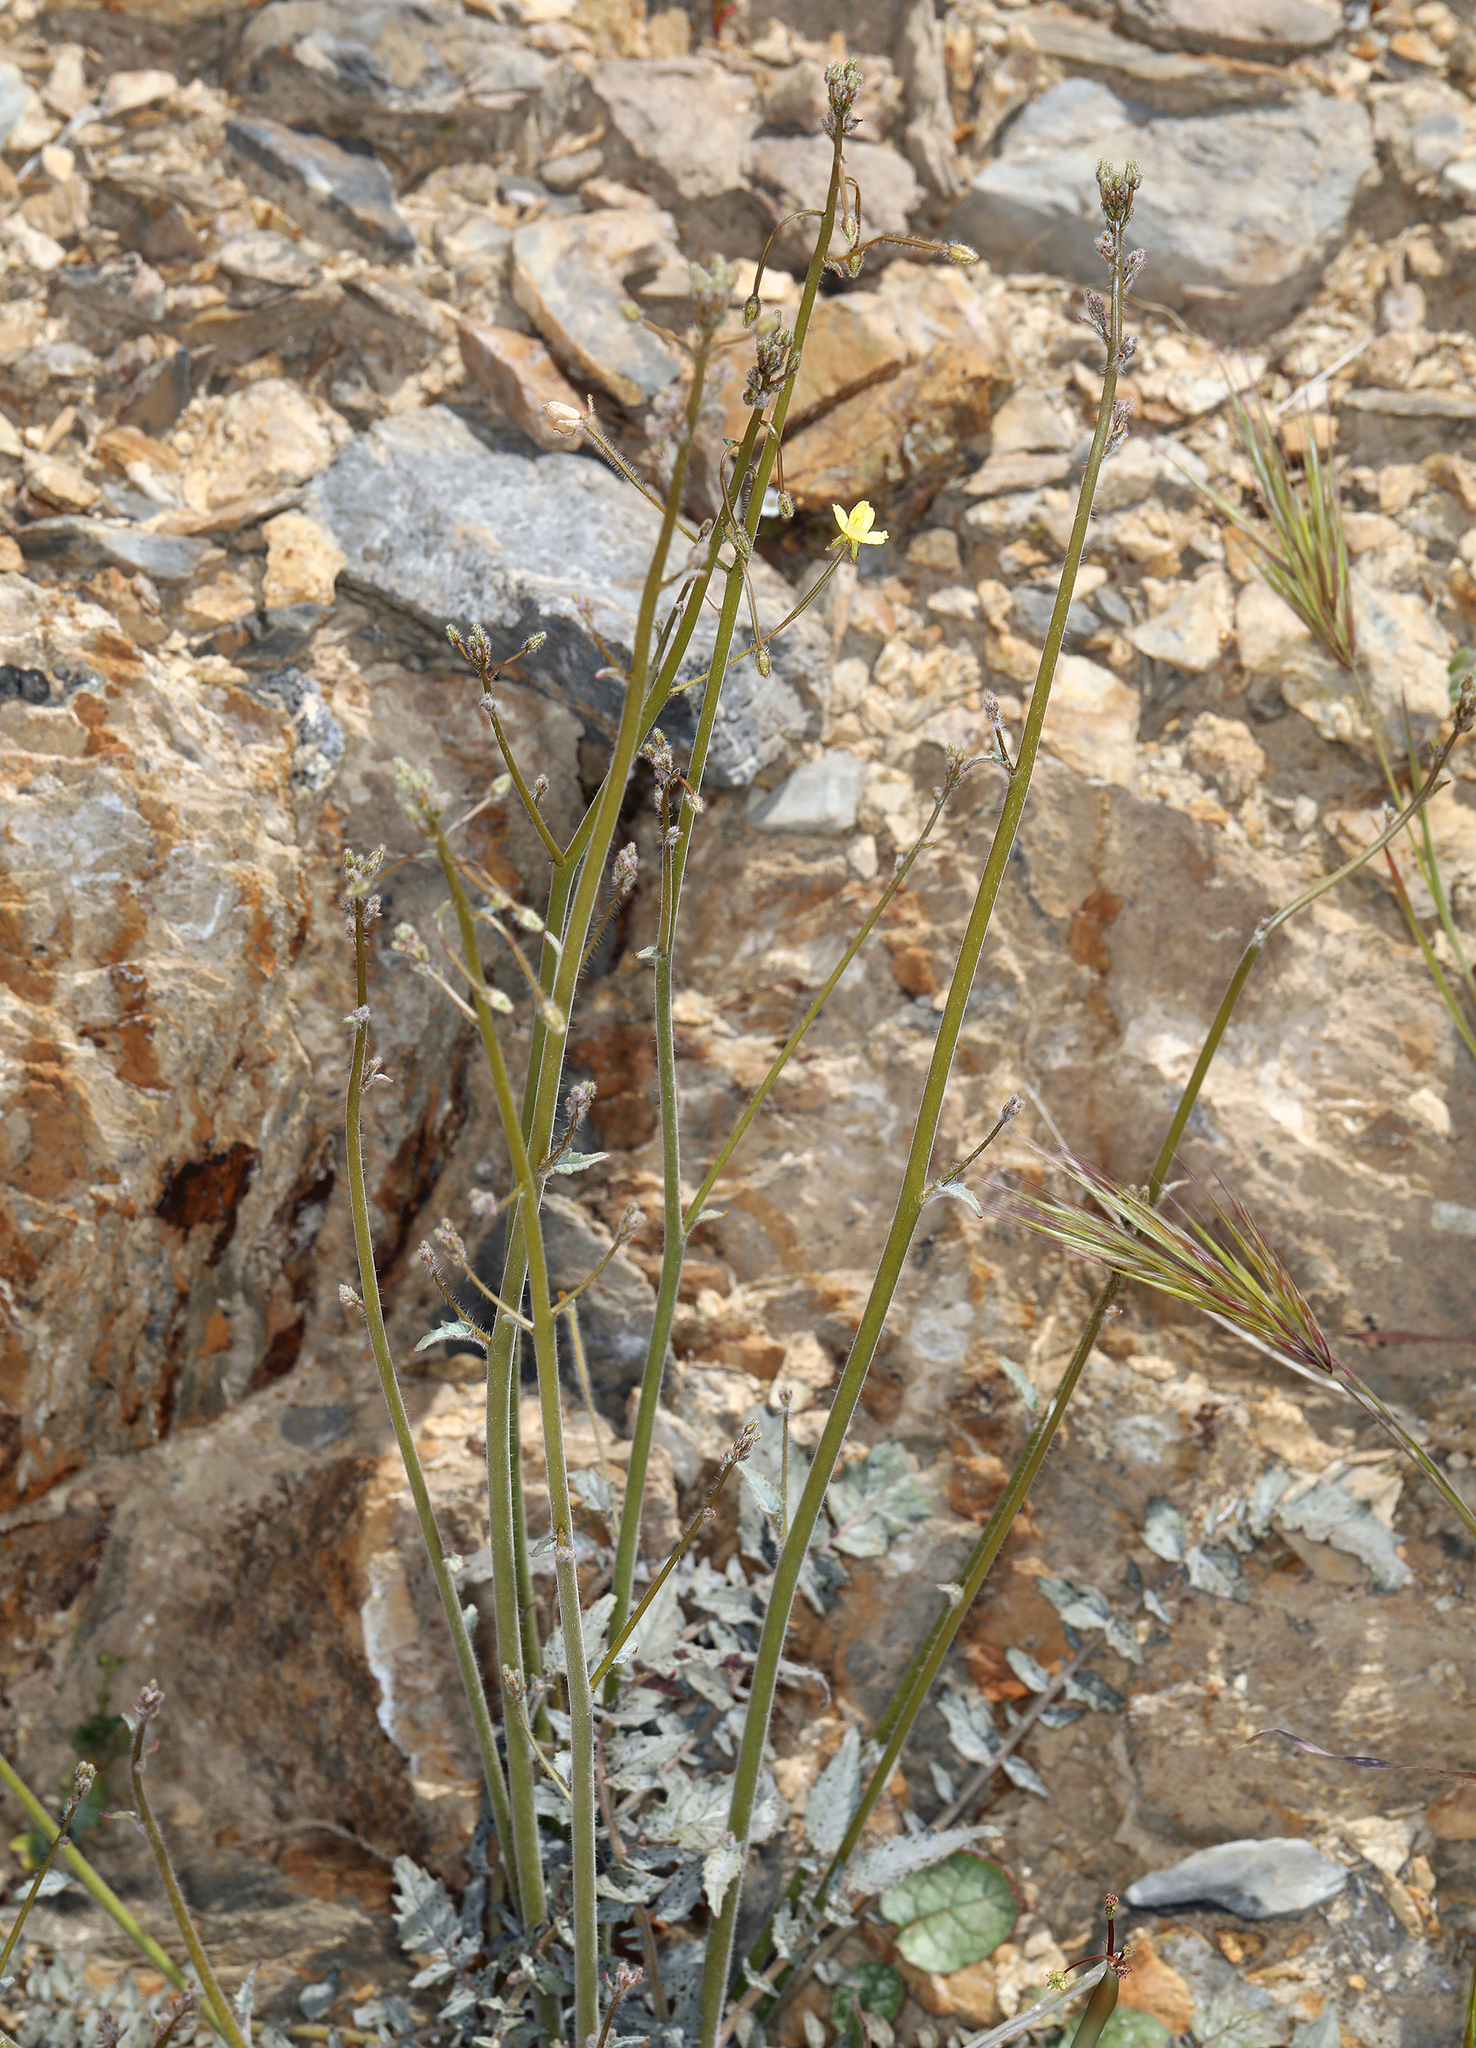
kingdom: Plantae
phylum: Tracheophyta
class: Magnoliopsida
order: Myrtales
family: Onagraceae
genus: Chylismia
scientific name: Chylismia walkeri
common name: Walker's suncup
